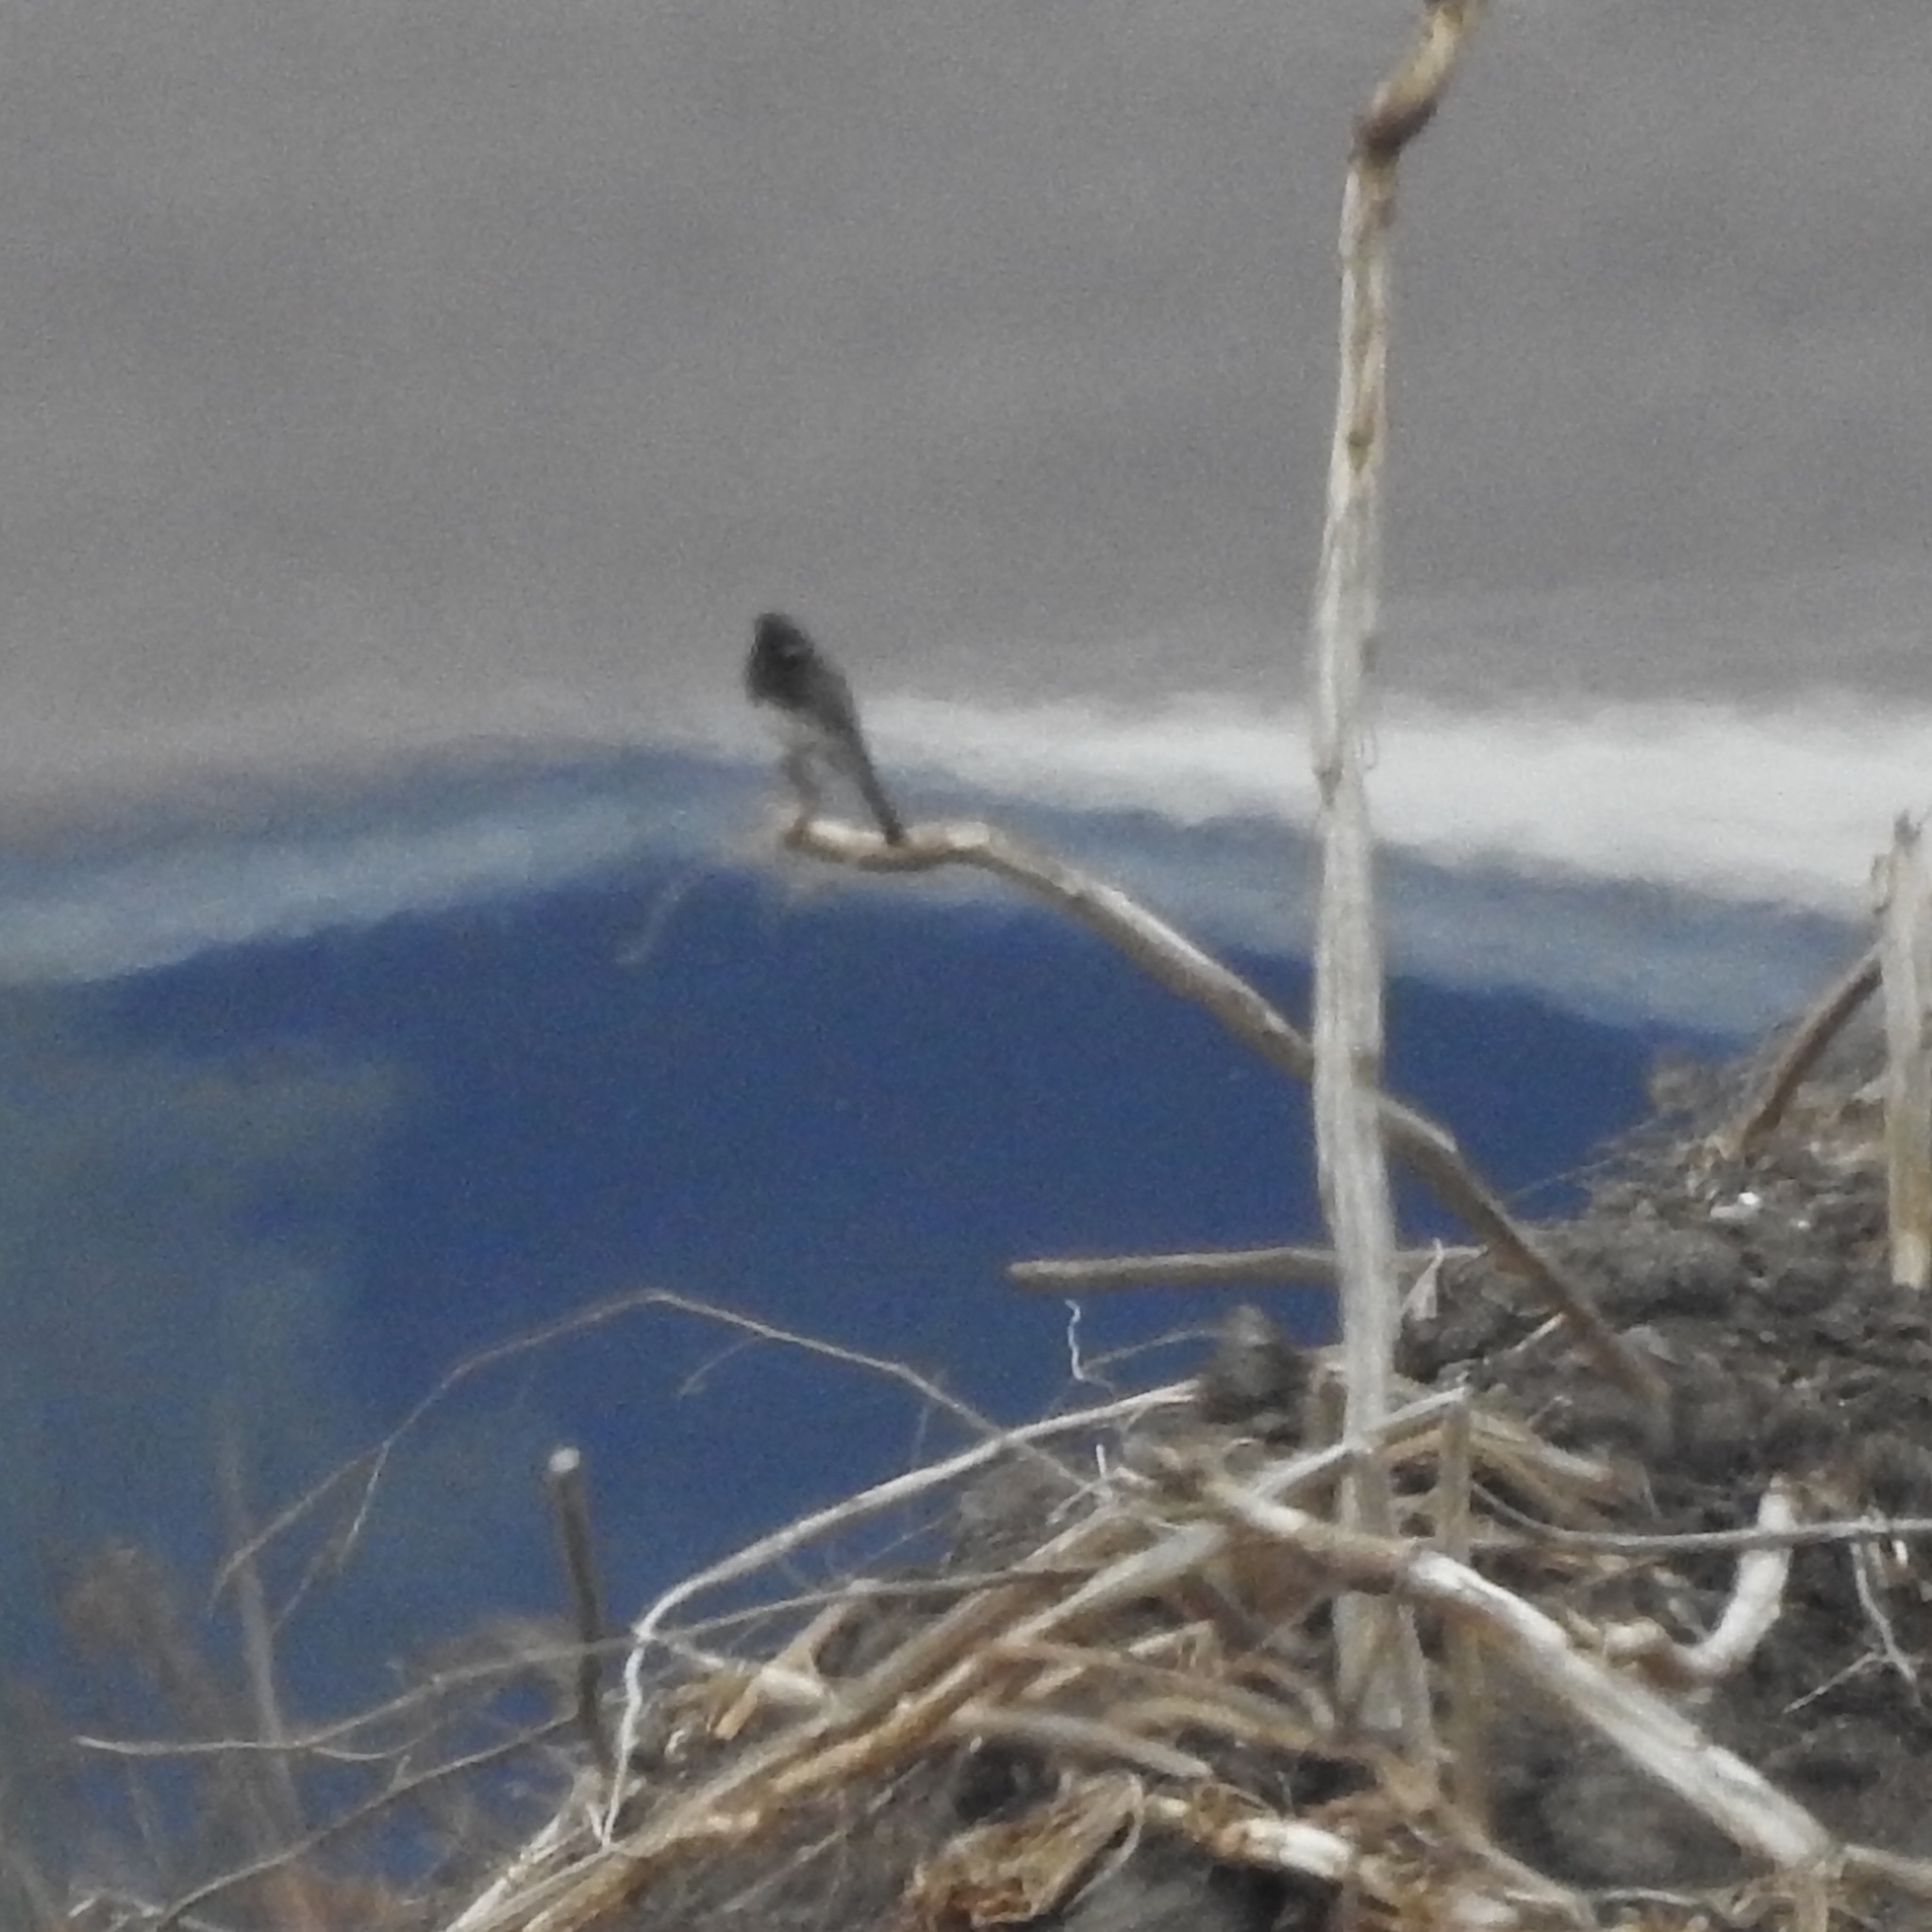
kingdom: Animalia
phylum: Chordata
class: Aves
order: Passeriformes
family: Tyrannidae
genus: Sayornis
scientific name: Sayornis nigricans
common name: Black phoebe
